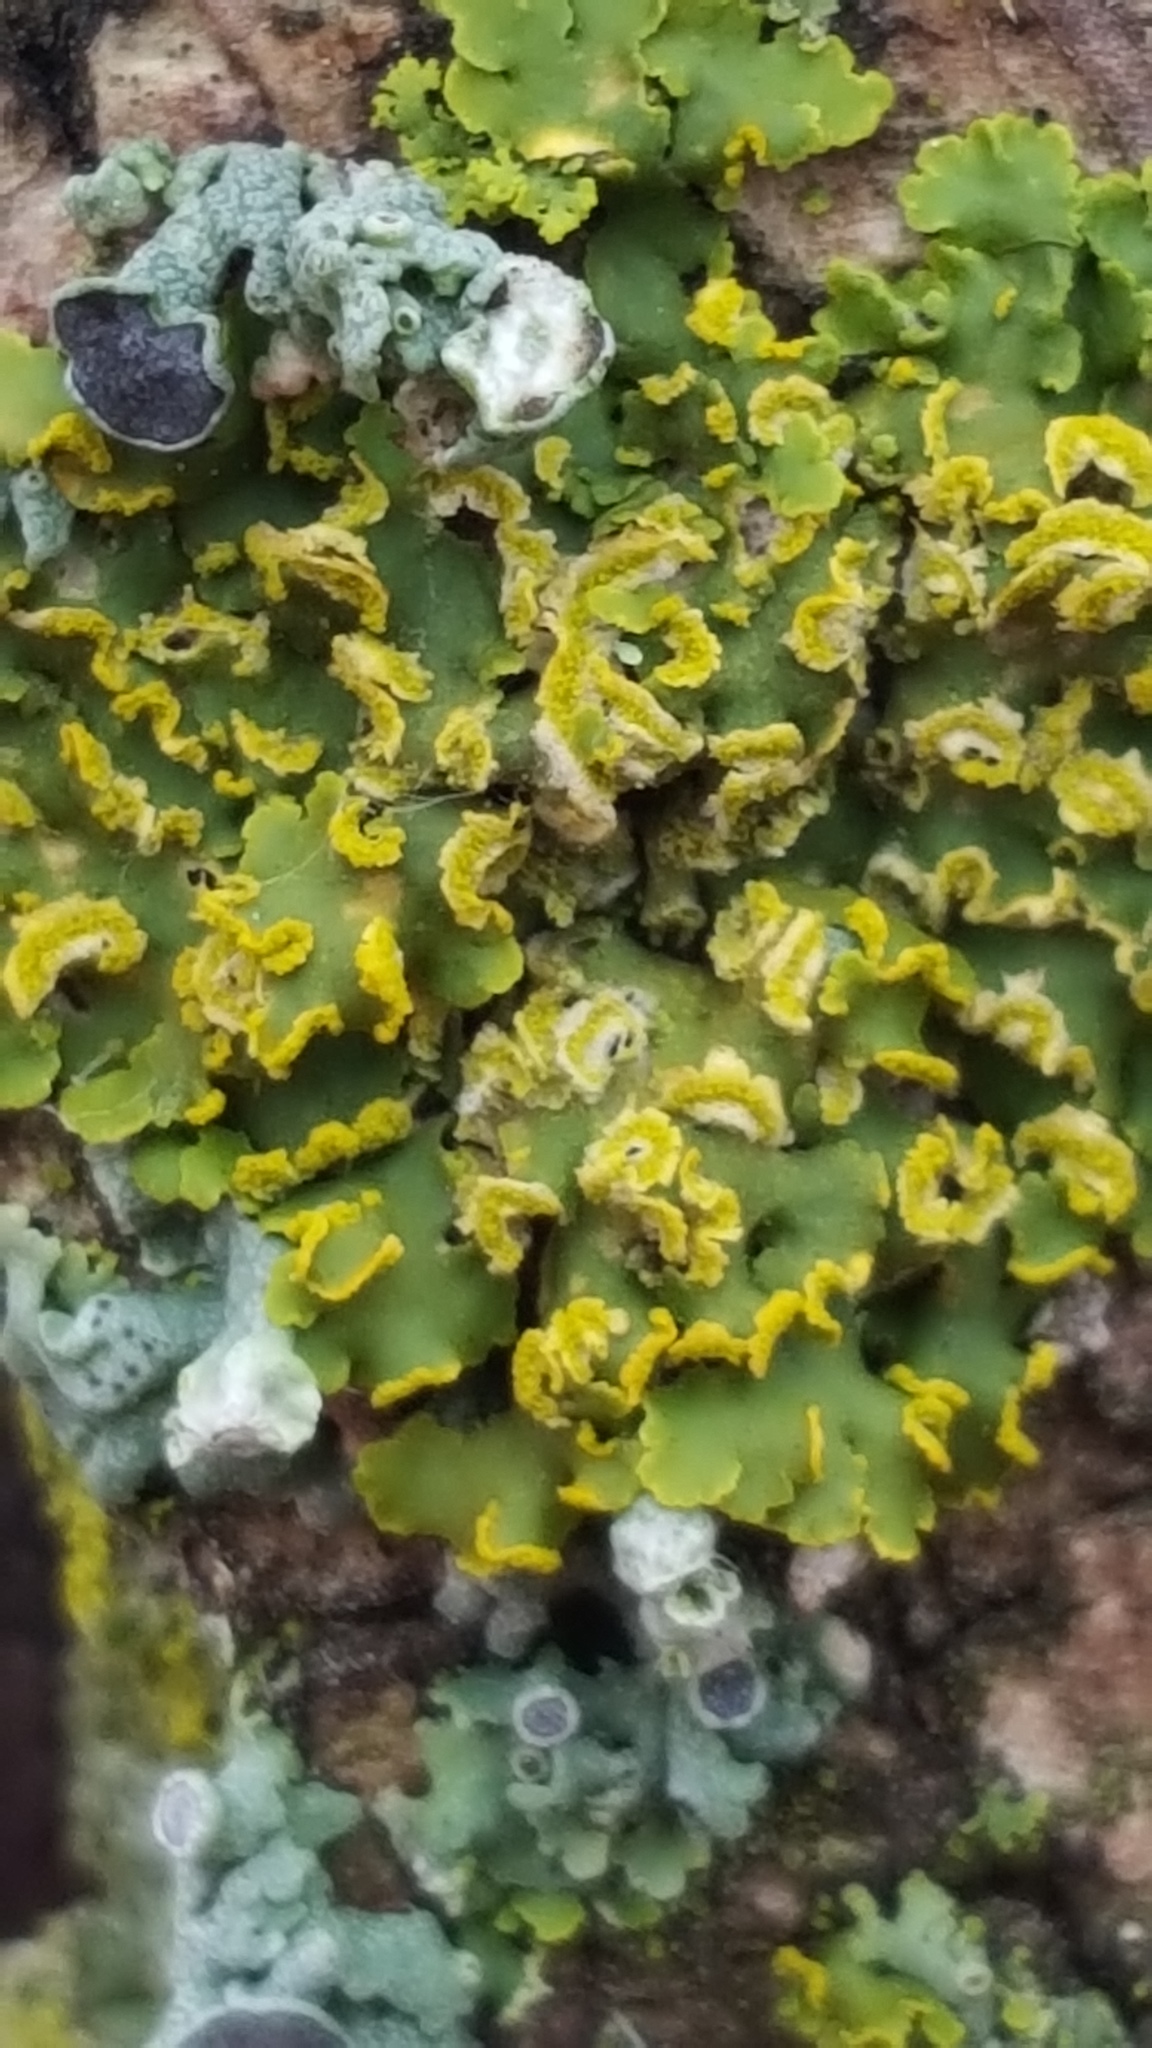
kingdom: Fungi
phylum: Ascomycota
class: Lecanoromycetes
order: Teloschistales
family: Teloschistaceae
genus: Oxneria
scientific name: Oxneria fallax
